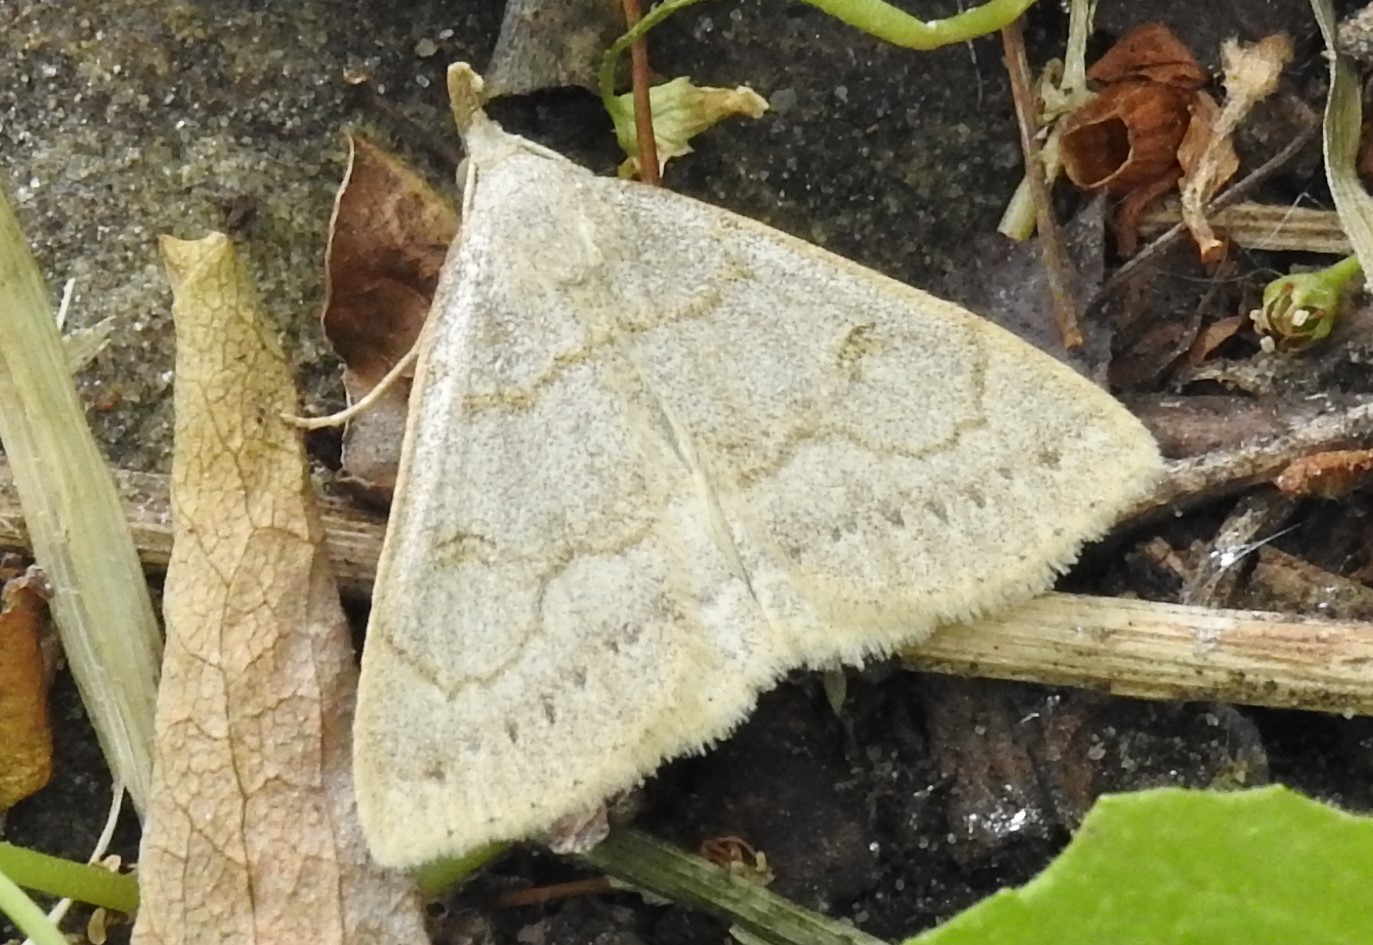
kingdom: Animalia
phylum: Arthropoda
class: Insecta
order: Lepidoptera
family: Erebidae
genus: Macrochilo
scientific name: Macrochilo morbidalis
